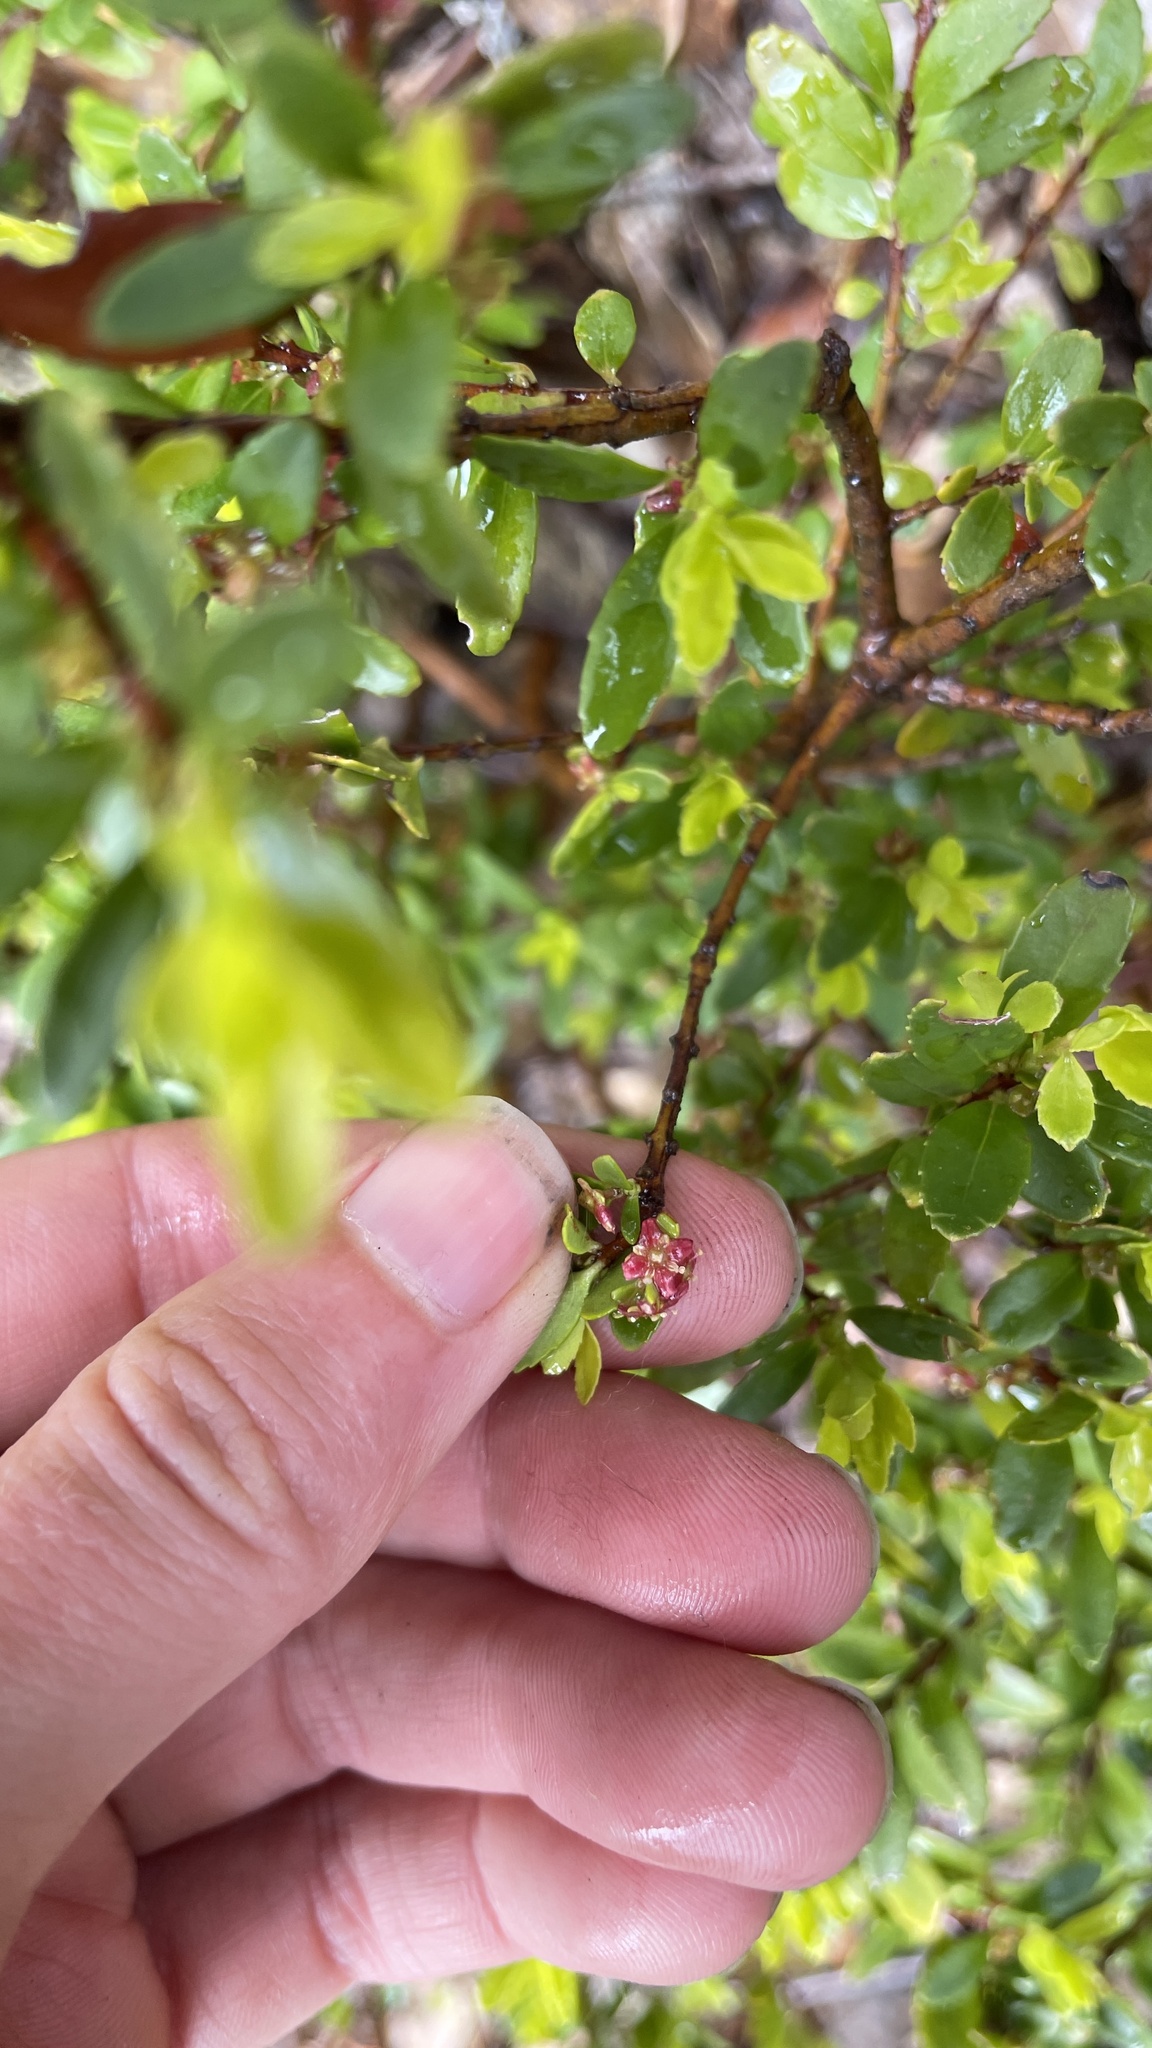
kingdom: Plantae
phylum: Tracheophyta
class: Magnoliopsida
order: Celastrales
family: Celastraceae
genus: Paxistima
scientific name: Paxistima myrsinites
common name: Mountain-lover
